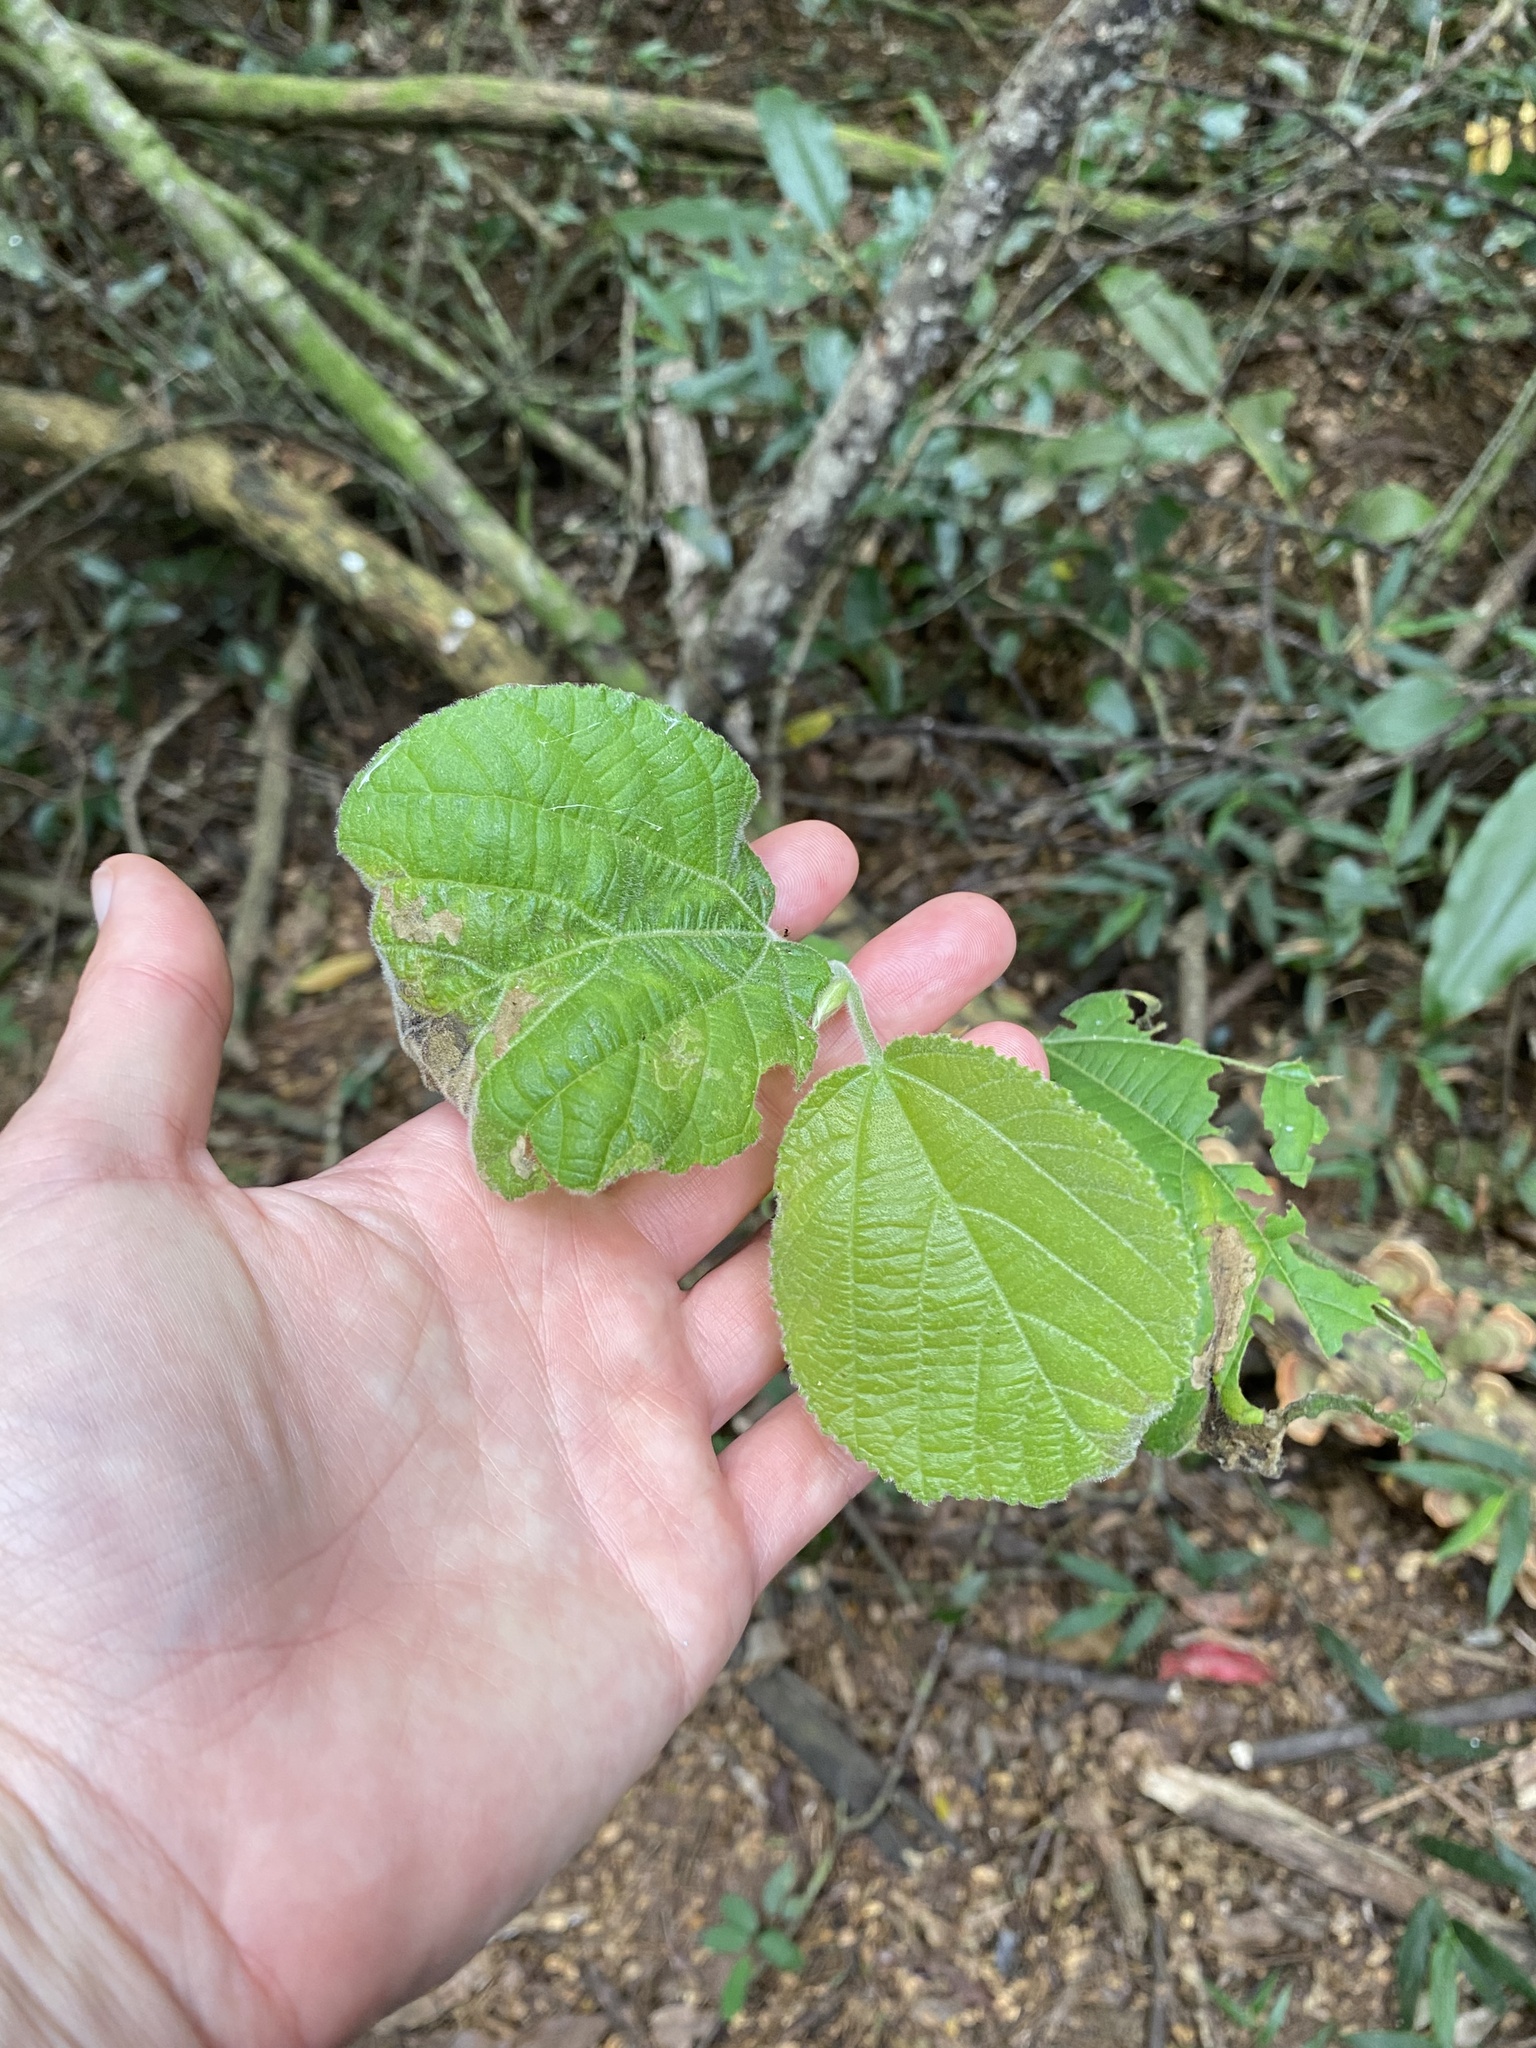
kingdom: Plantae
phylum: Tracheophyta
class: Magnoliopsida
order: Malpighiales
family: Salicaceae
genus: Trimeria
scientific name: Trimeria grandifolia
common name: Wild mulberry
